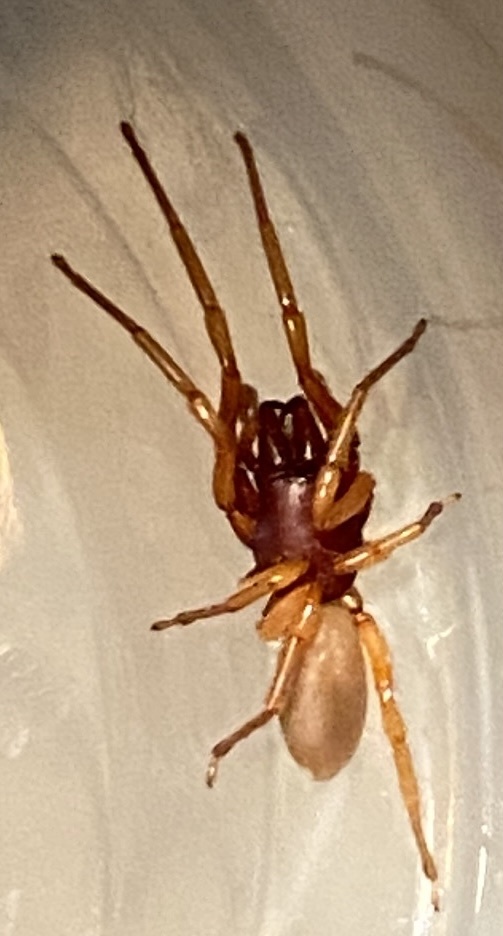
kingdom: Animalia
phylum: Arthropoda
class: Arachnida
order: Araneae
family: Dysderidae
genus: Dysdera
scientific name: Dysdera crocata
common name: Woodlouse spider
